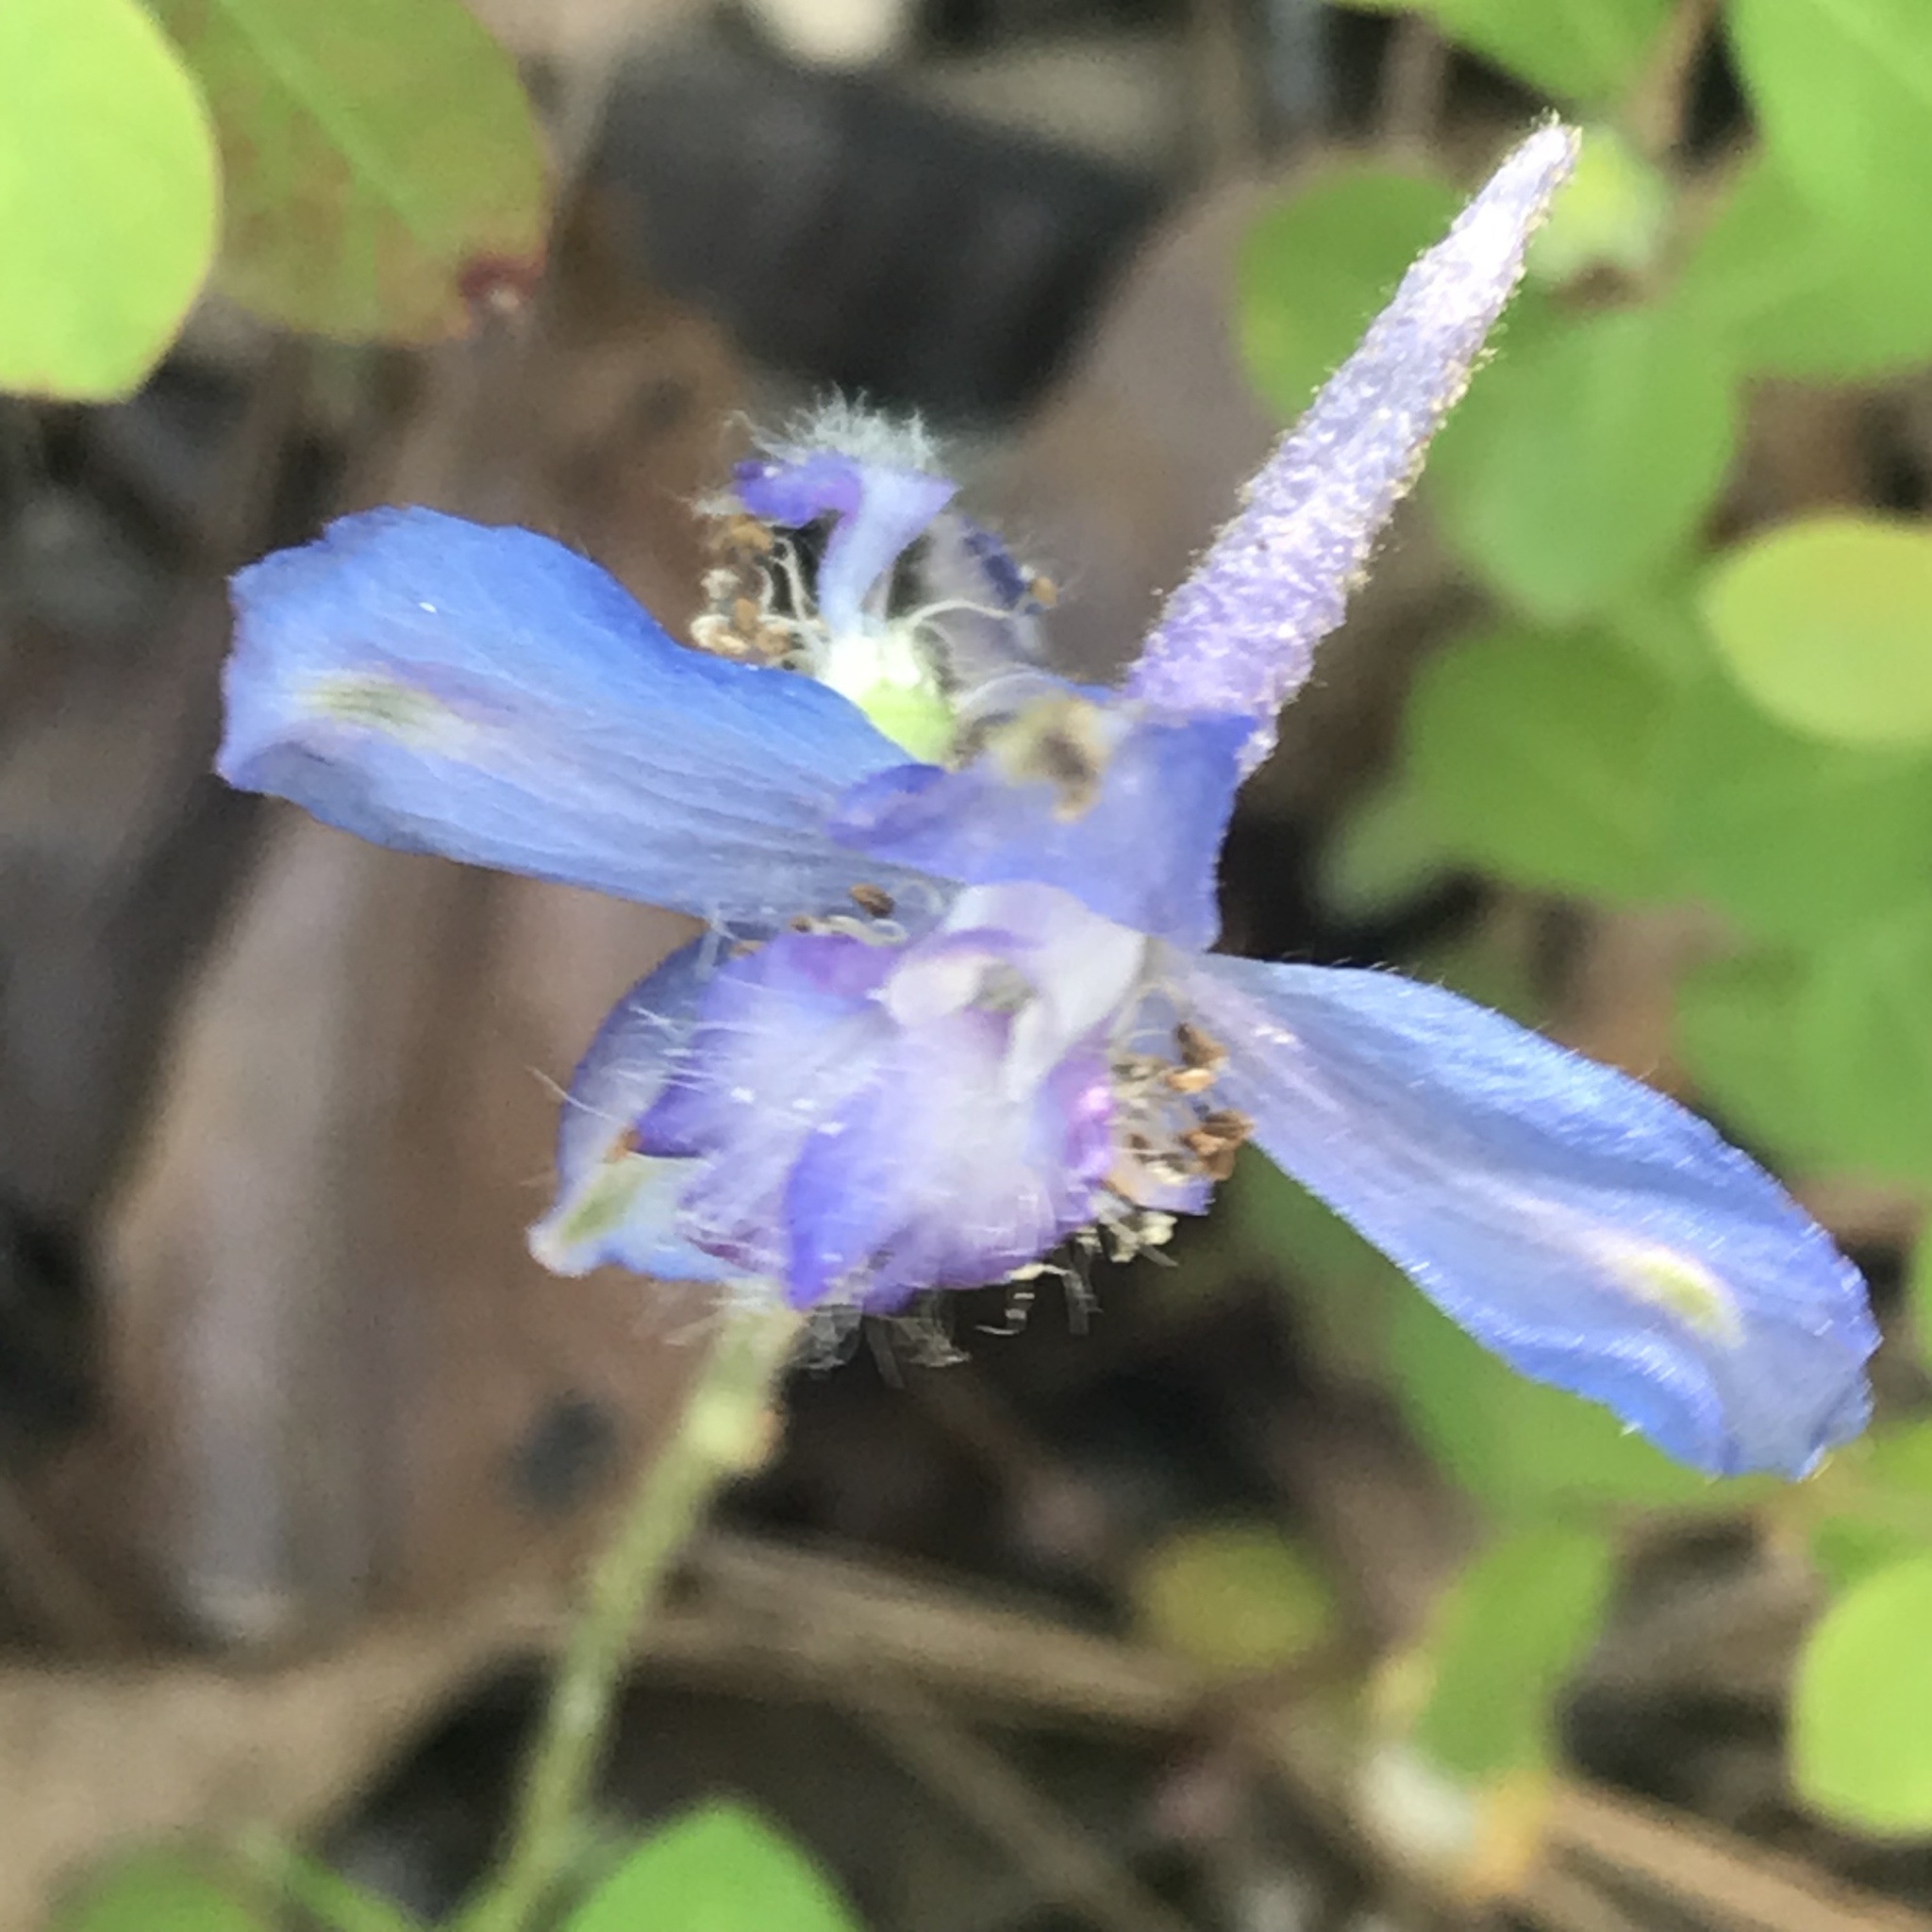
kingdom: Plantae
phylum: Tracheophyta
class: Magnoliopsida
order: Ranunculales
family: Ranunculaceae
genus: Delphinium
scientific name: Delphinium madrense
